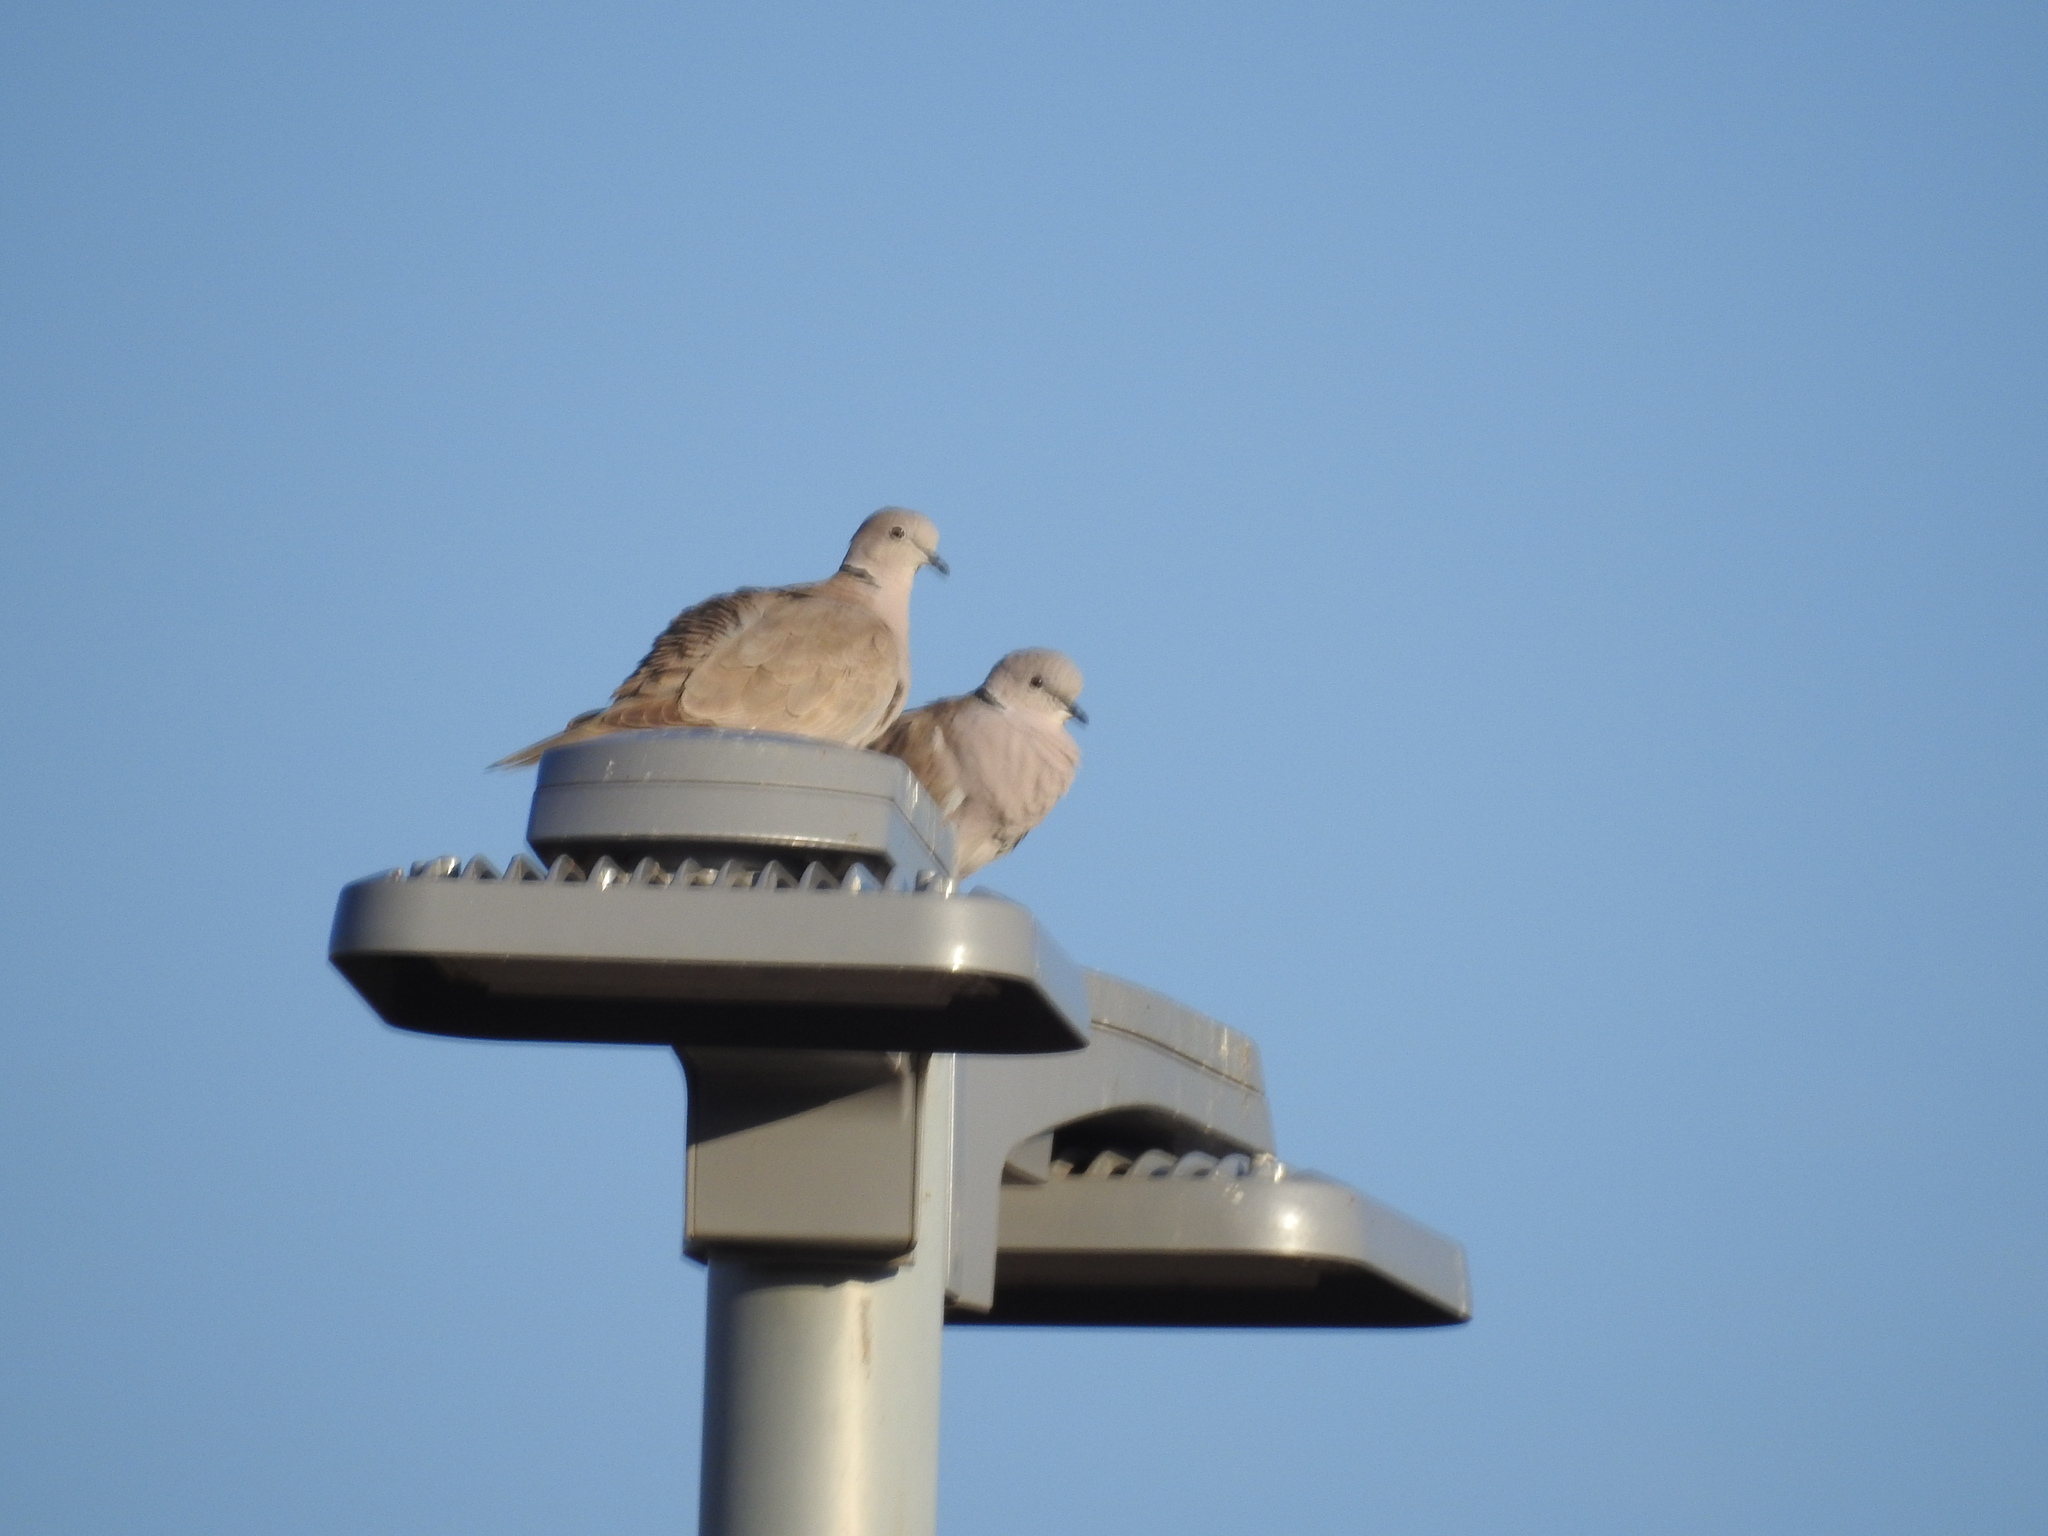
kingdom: Animalia
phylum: Chordata
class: Aves
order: Columbiformes
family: Columbidae
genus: Streptopelia
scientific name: Streptopelia decaocto
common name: Eurasian collared dove
